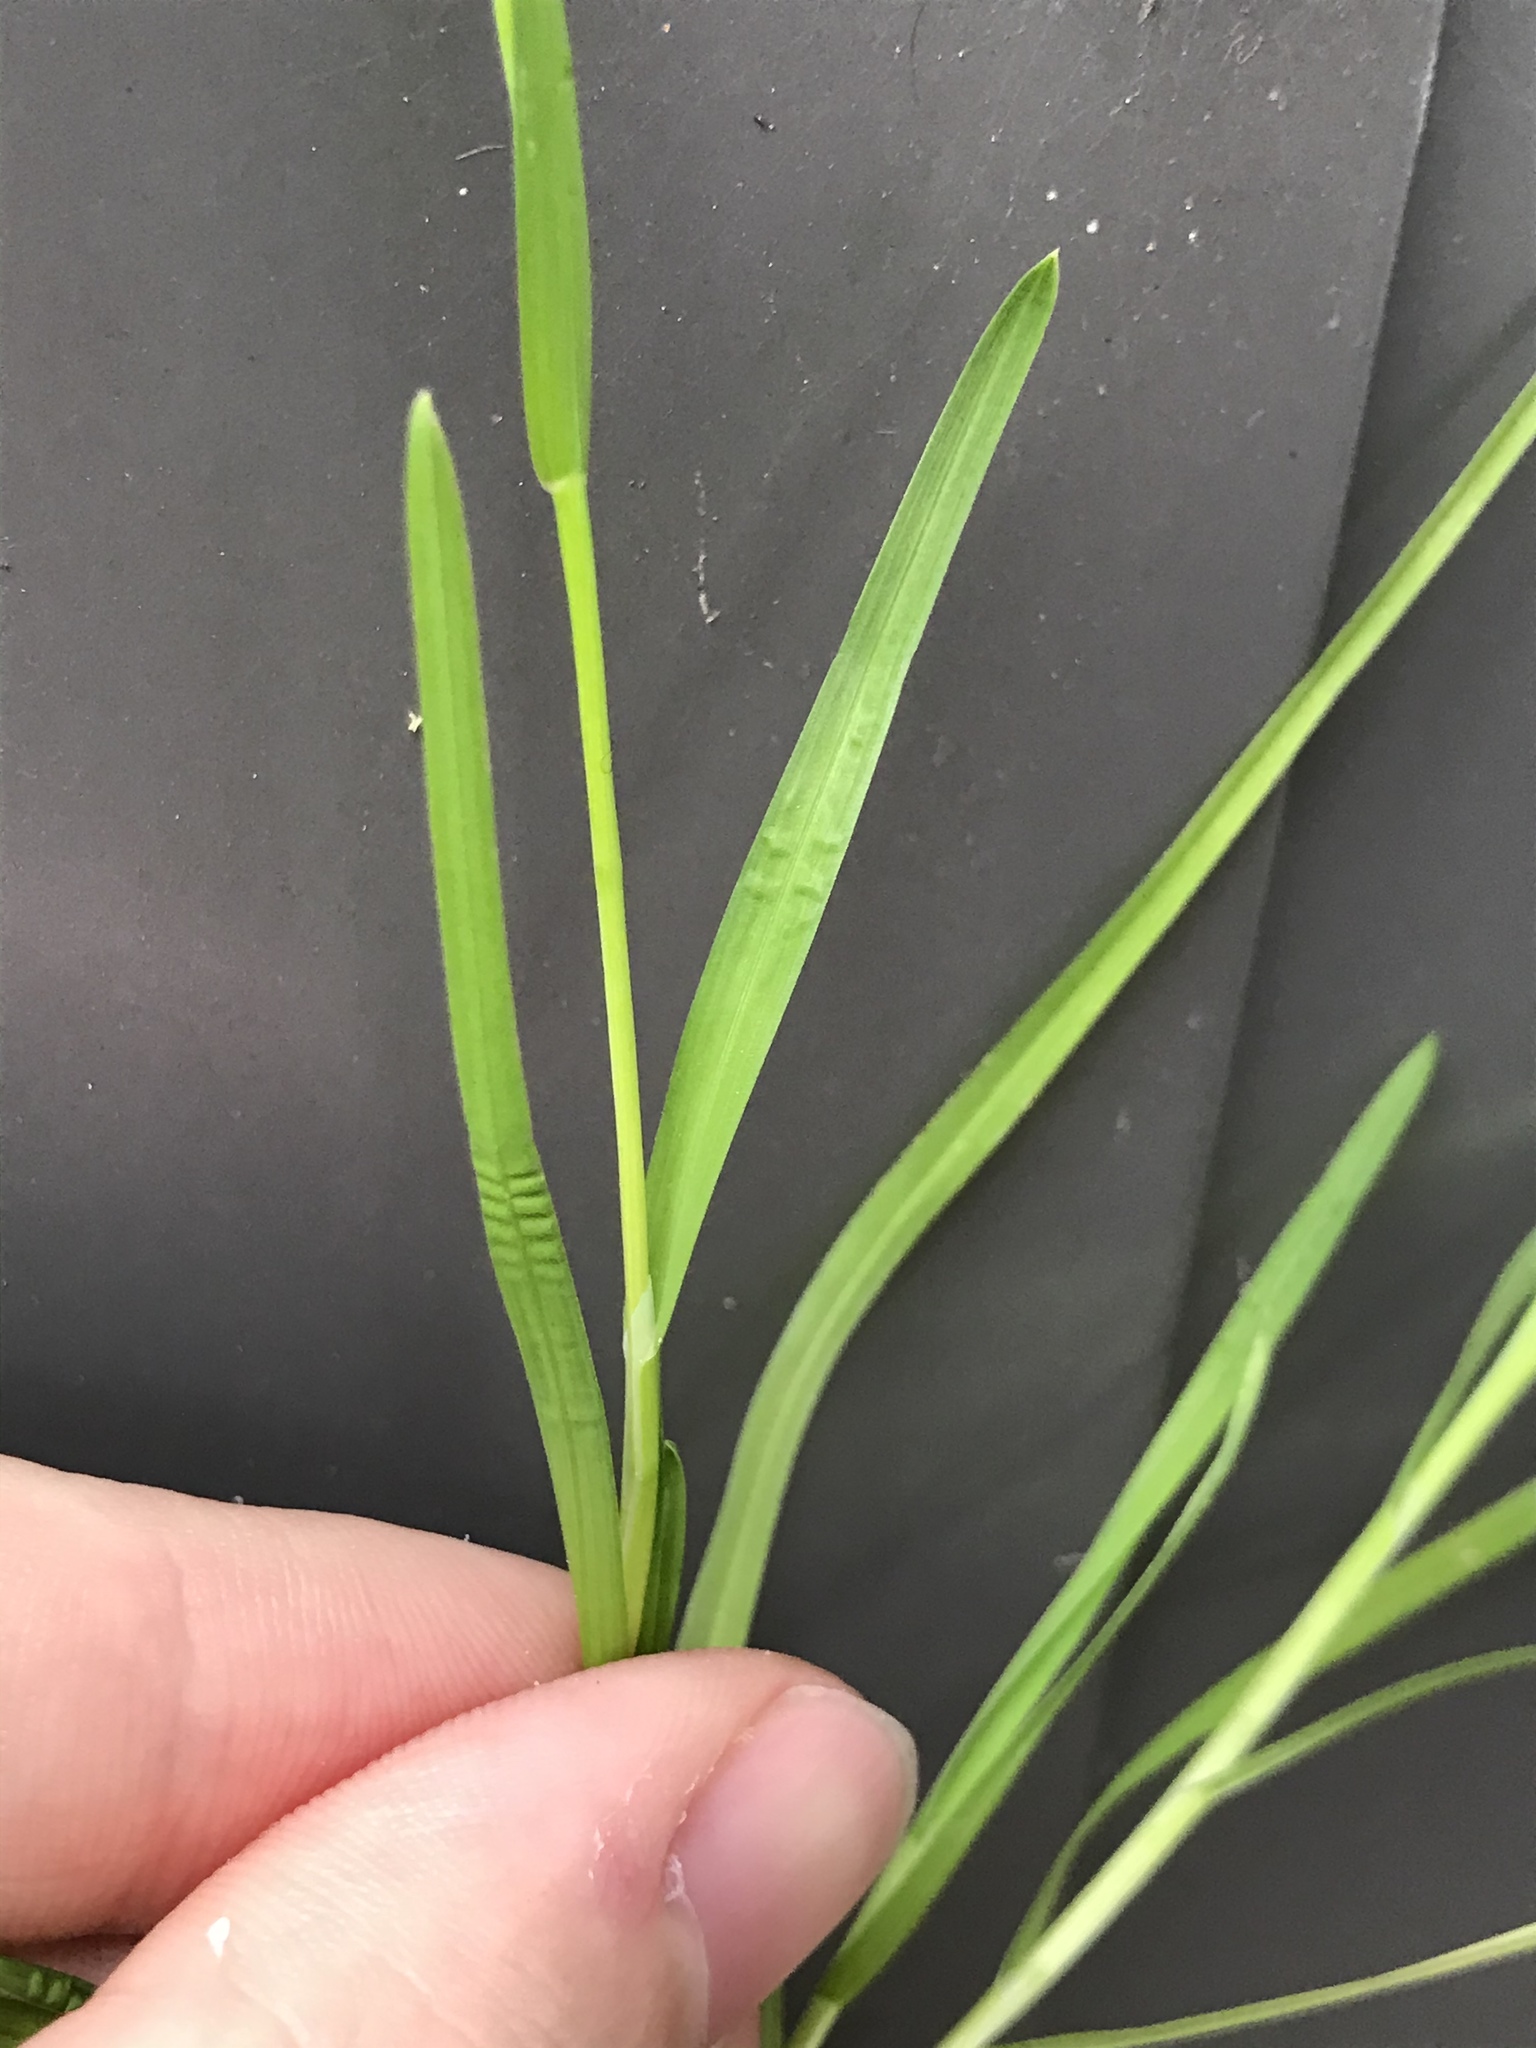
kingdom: Plantae
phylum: Tracheophyta
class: Liliopsida
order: Poales
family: Poaceae
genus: Poa
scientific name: Poa annua
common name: Annual bluegrass
